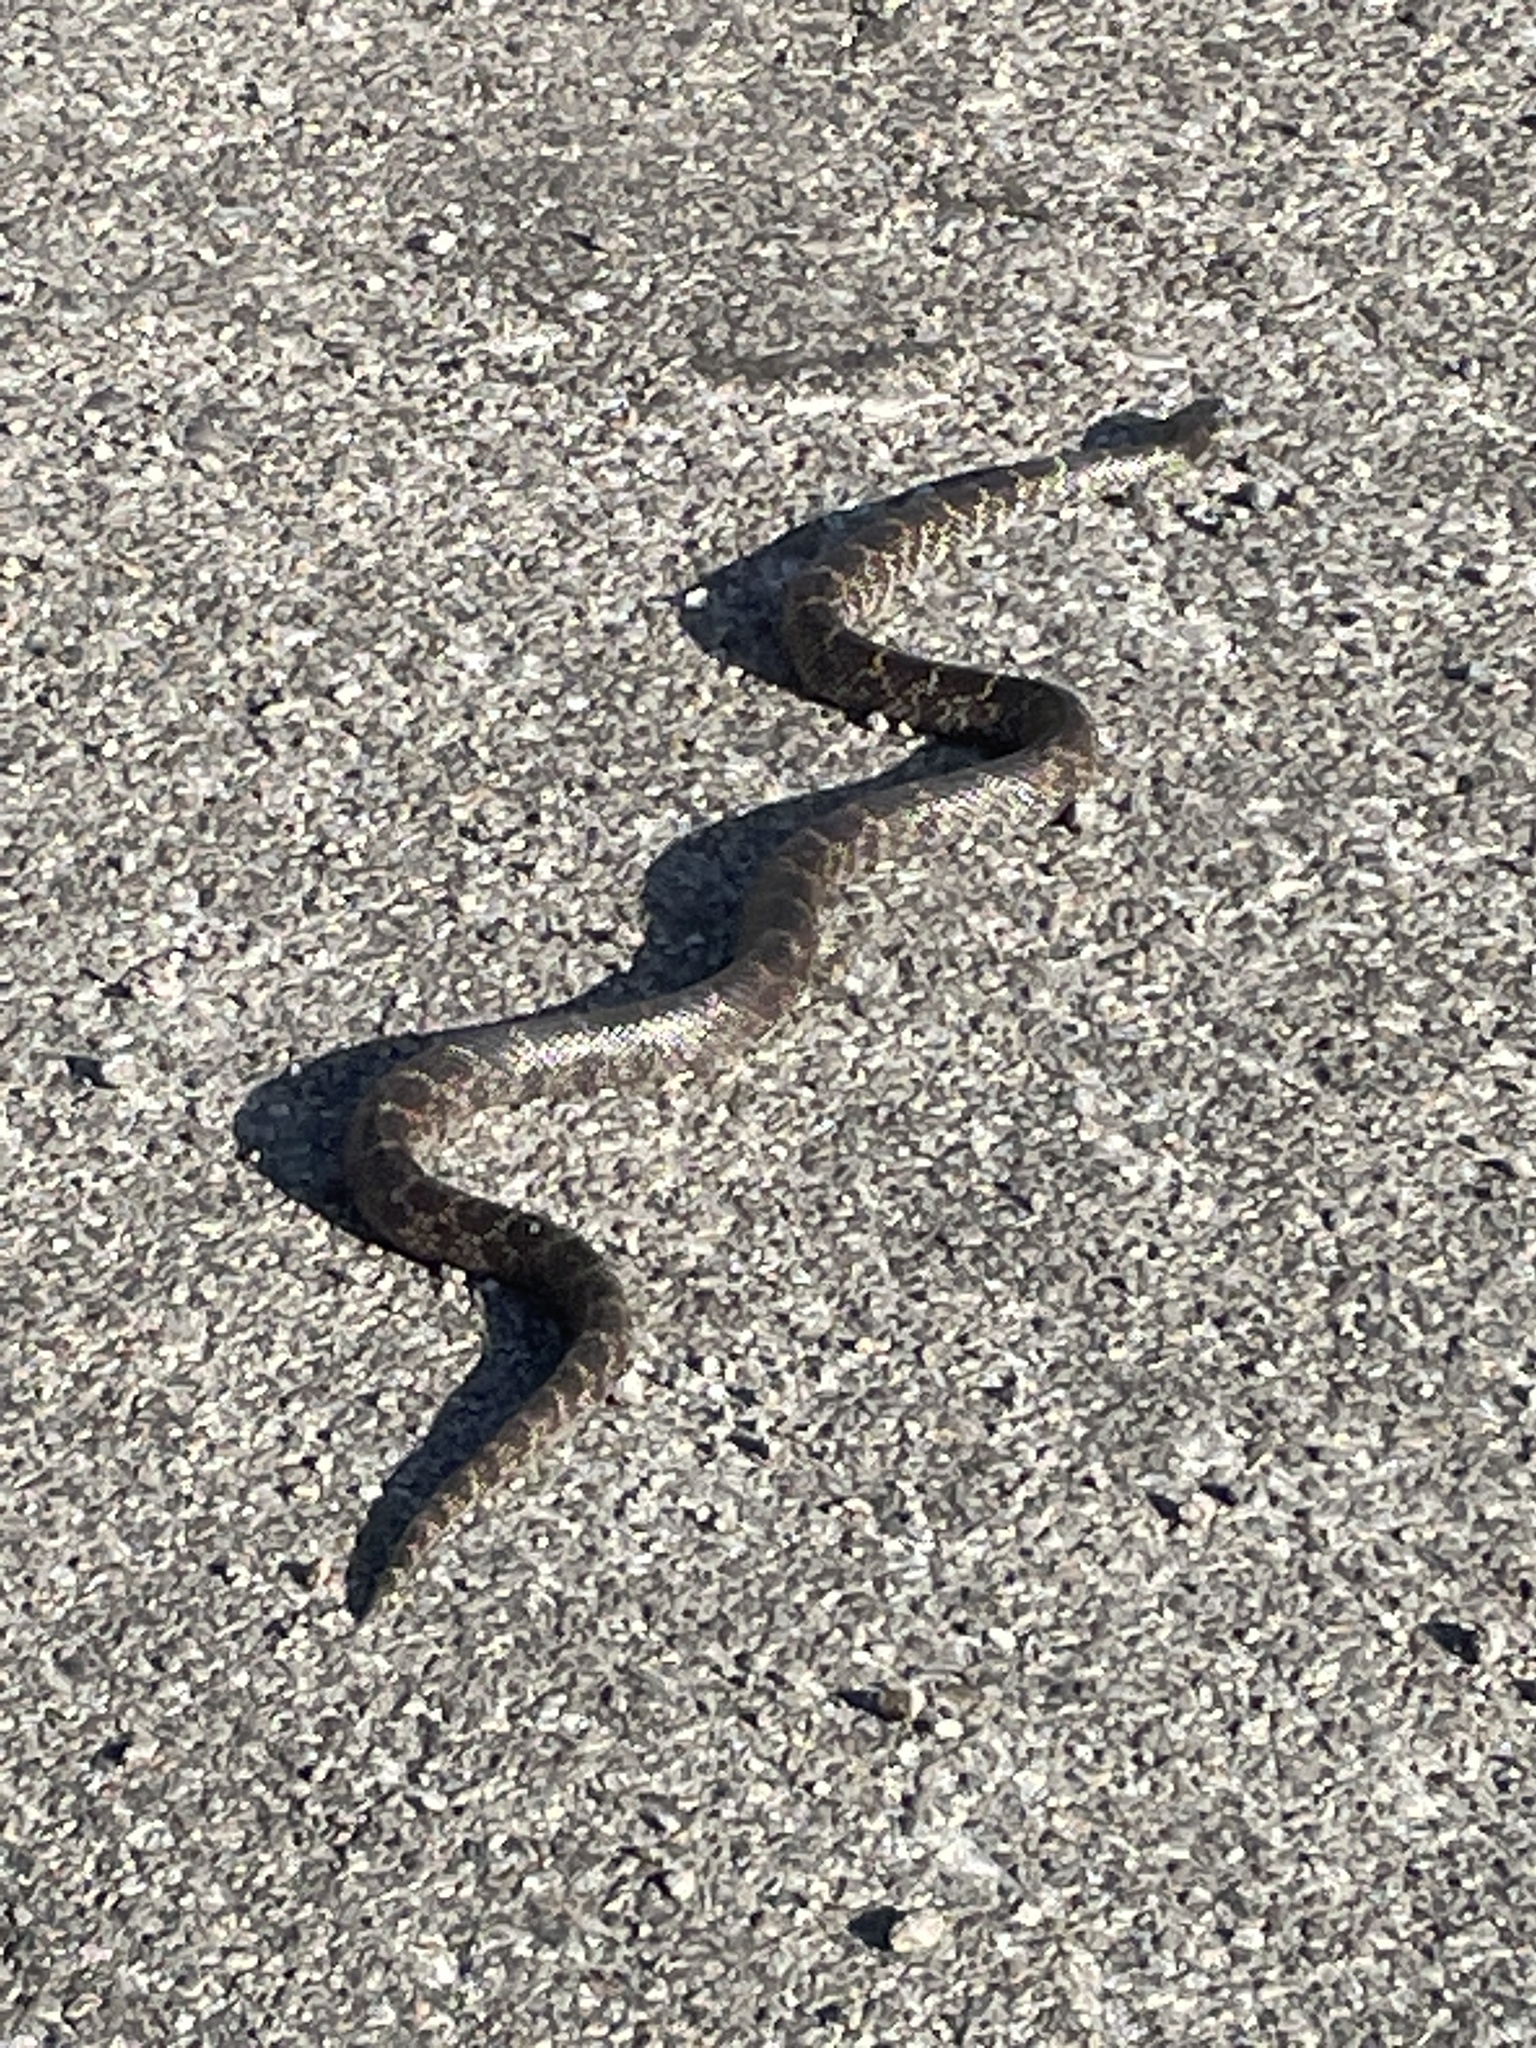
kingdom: Animalia
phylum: Chordata
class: Squamata
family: Colubridae
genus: Lampropeltis
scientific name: Lampropeltis splendida
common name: Desert kingsnake
